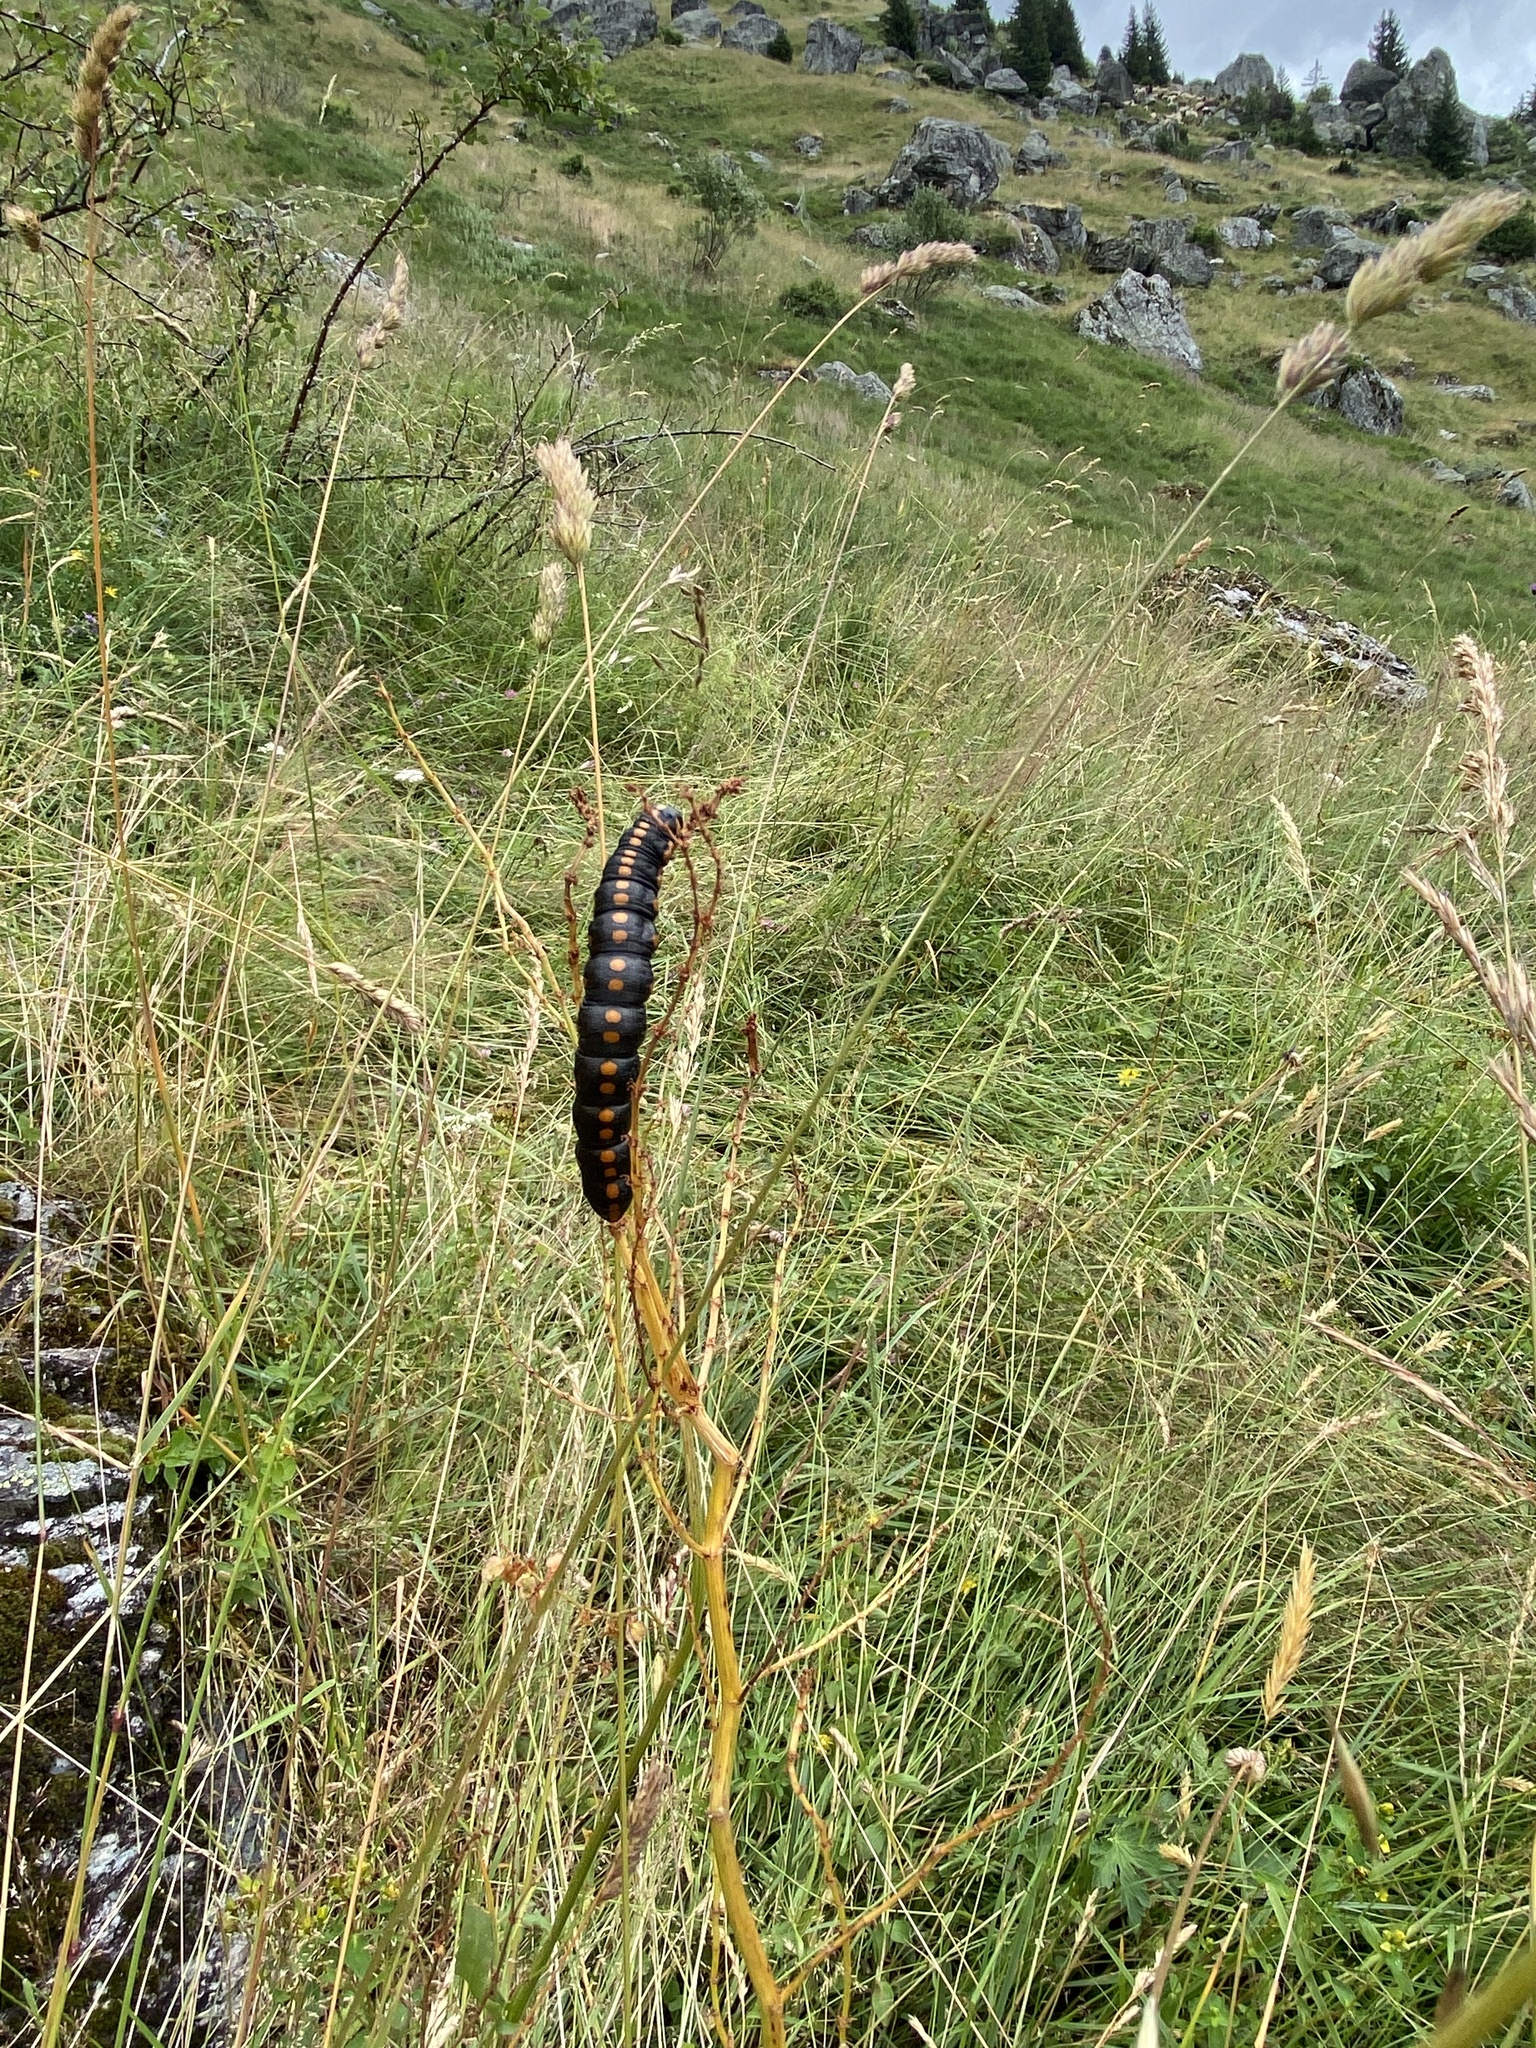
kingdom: Animalia
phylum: Arthropoda
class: Insecta
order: Lepidoptera
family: Noctuidae
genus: Cucullia
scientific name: Cucullia lucifuga
